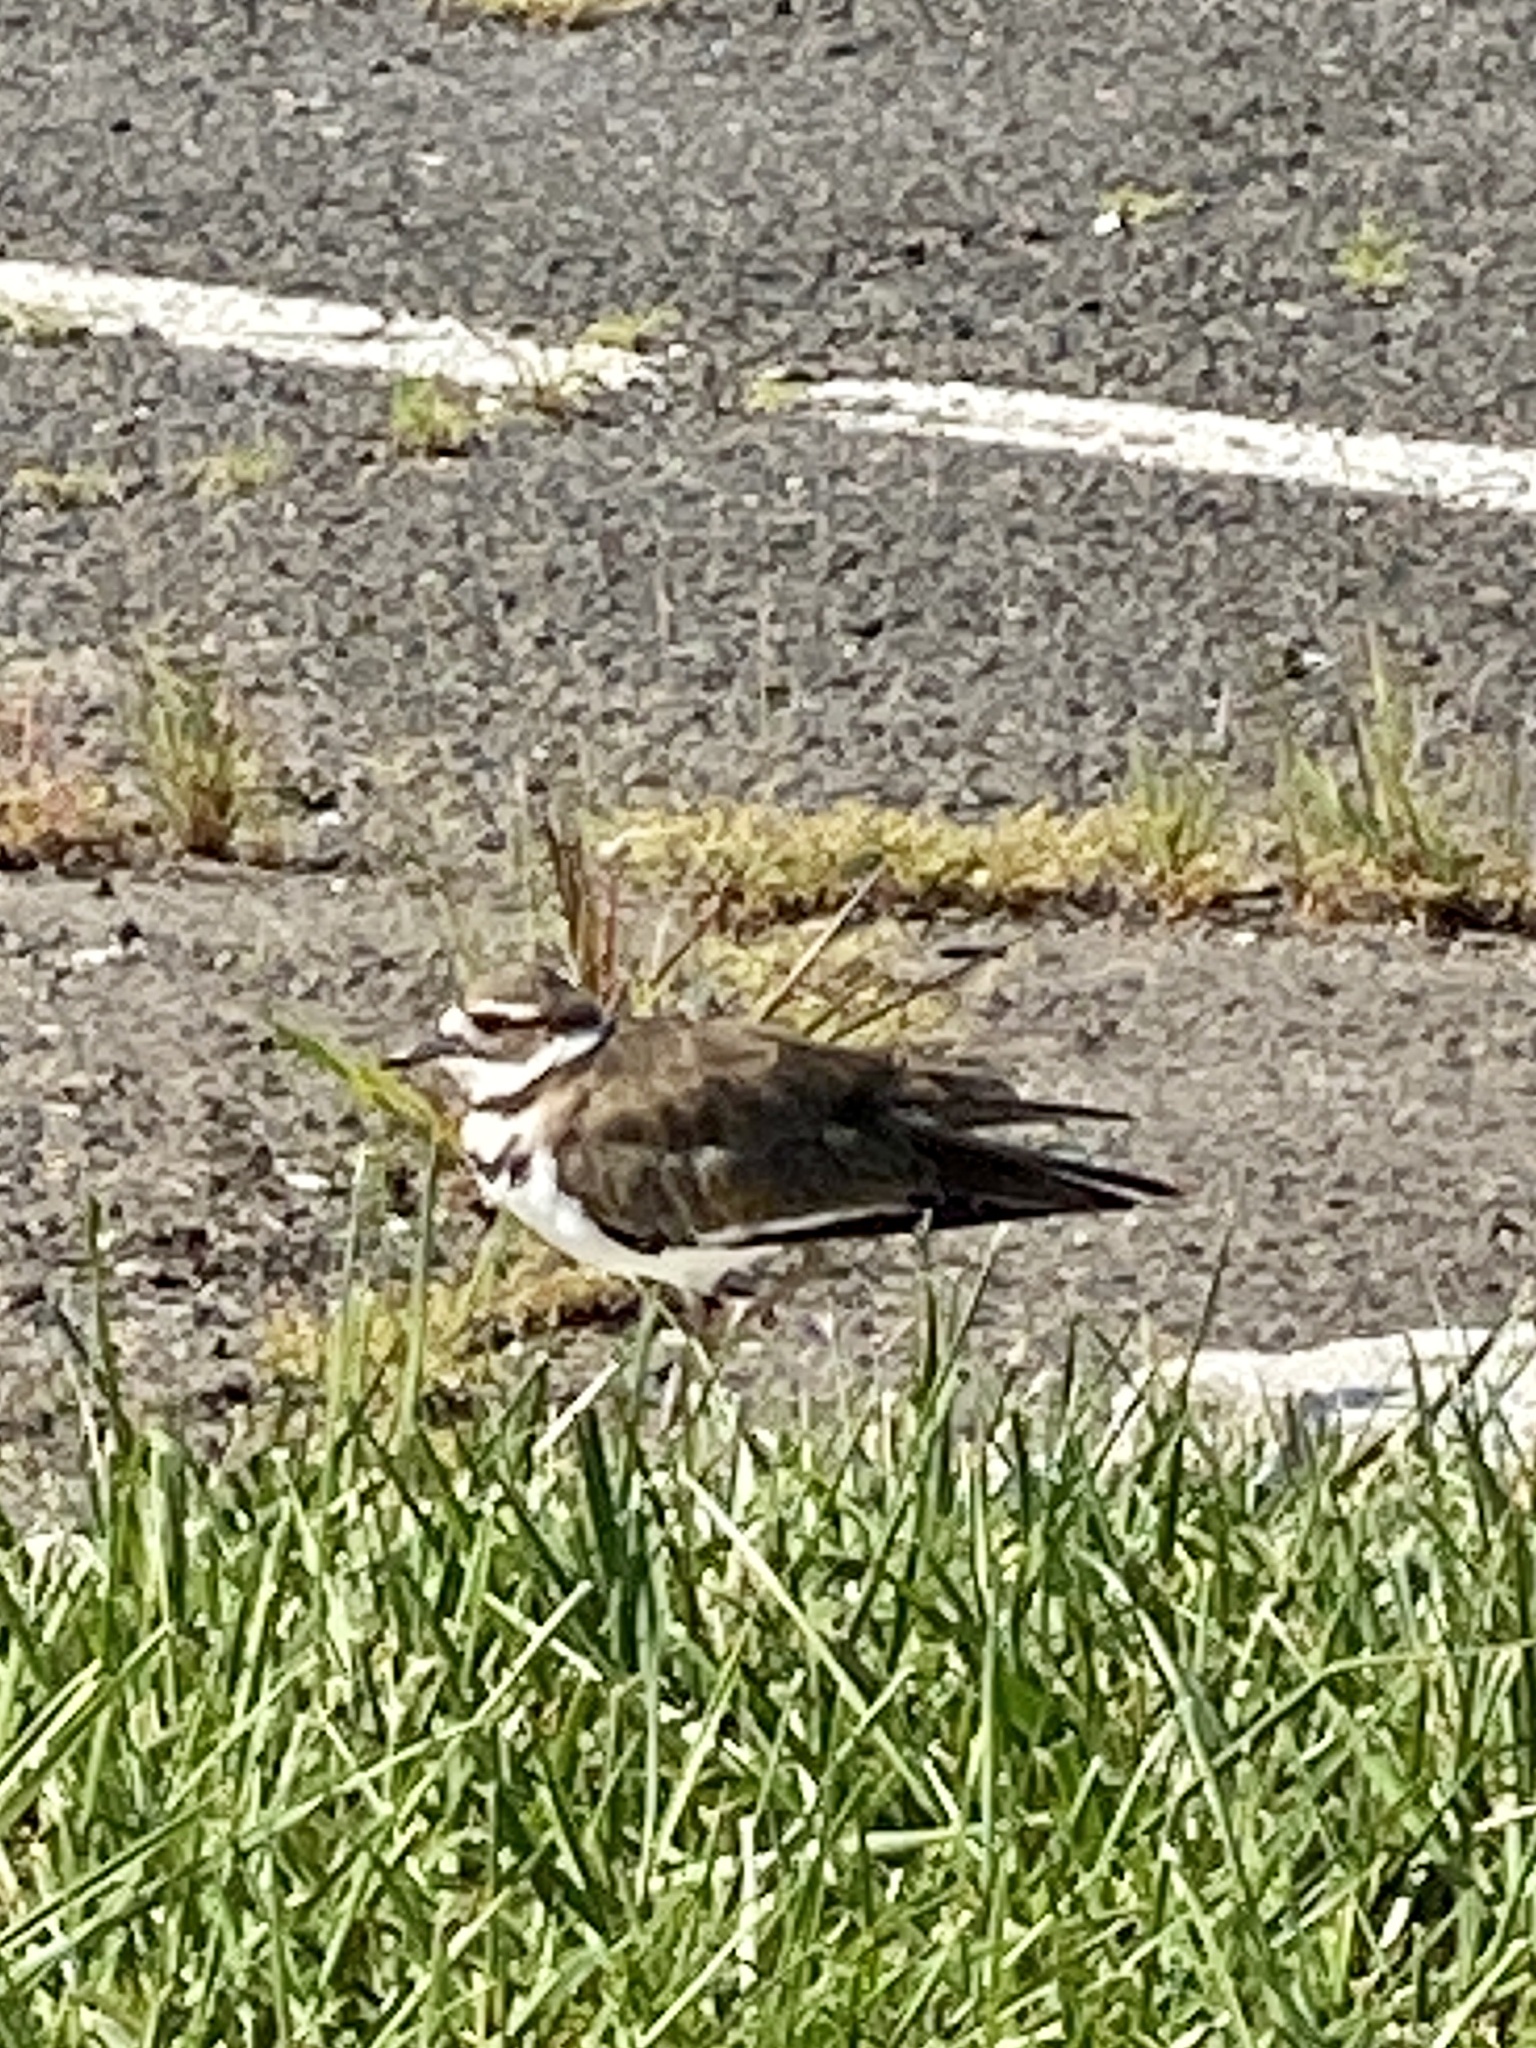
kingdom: Animalia
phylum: Chordata
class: Aves
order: Charadriiformes
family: Charadriidae
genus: Charadrius
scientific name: Charadrius vociferus
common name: Killdeer
